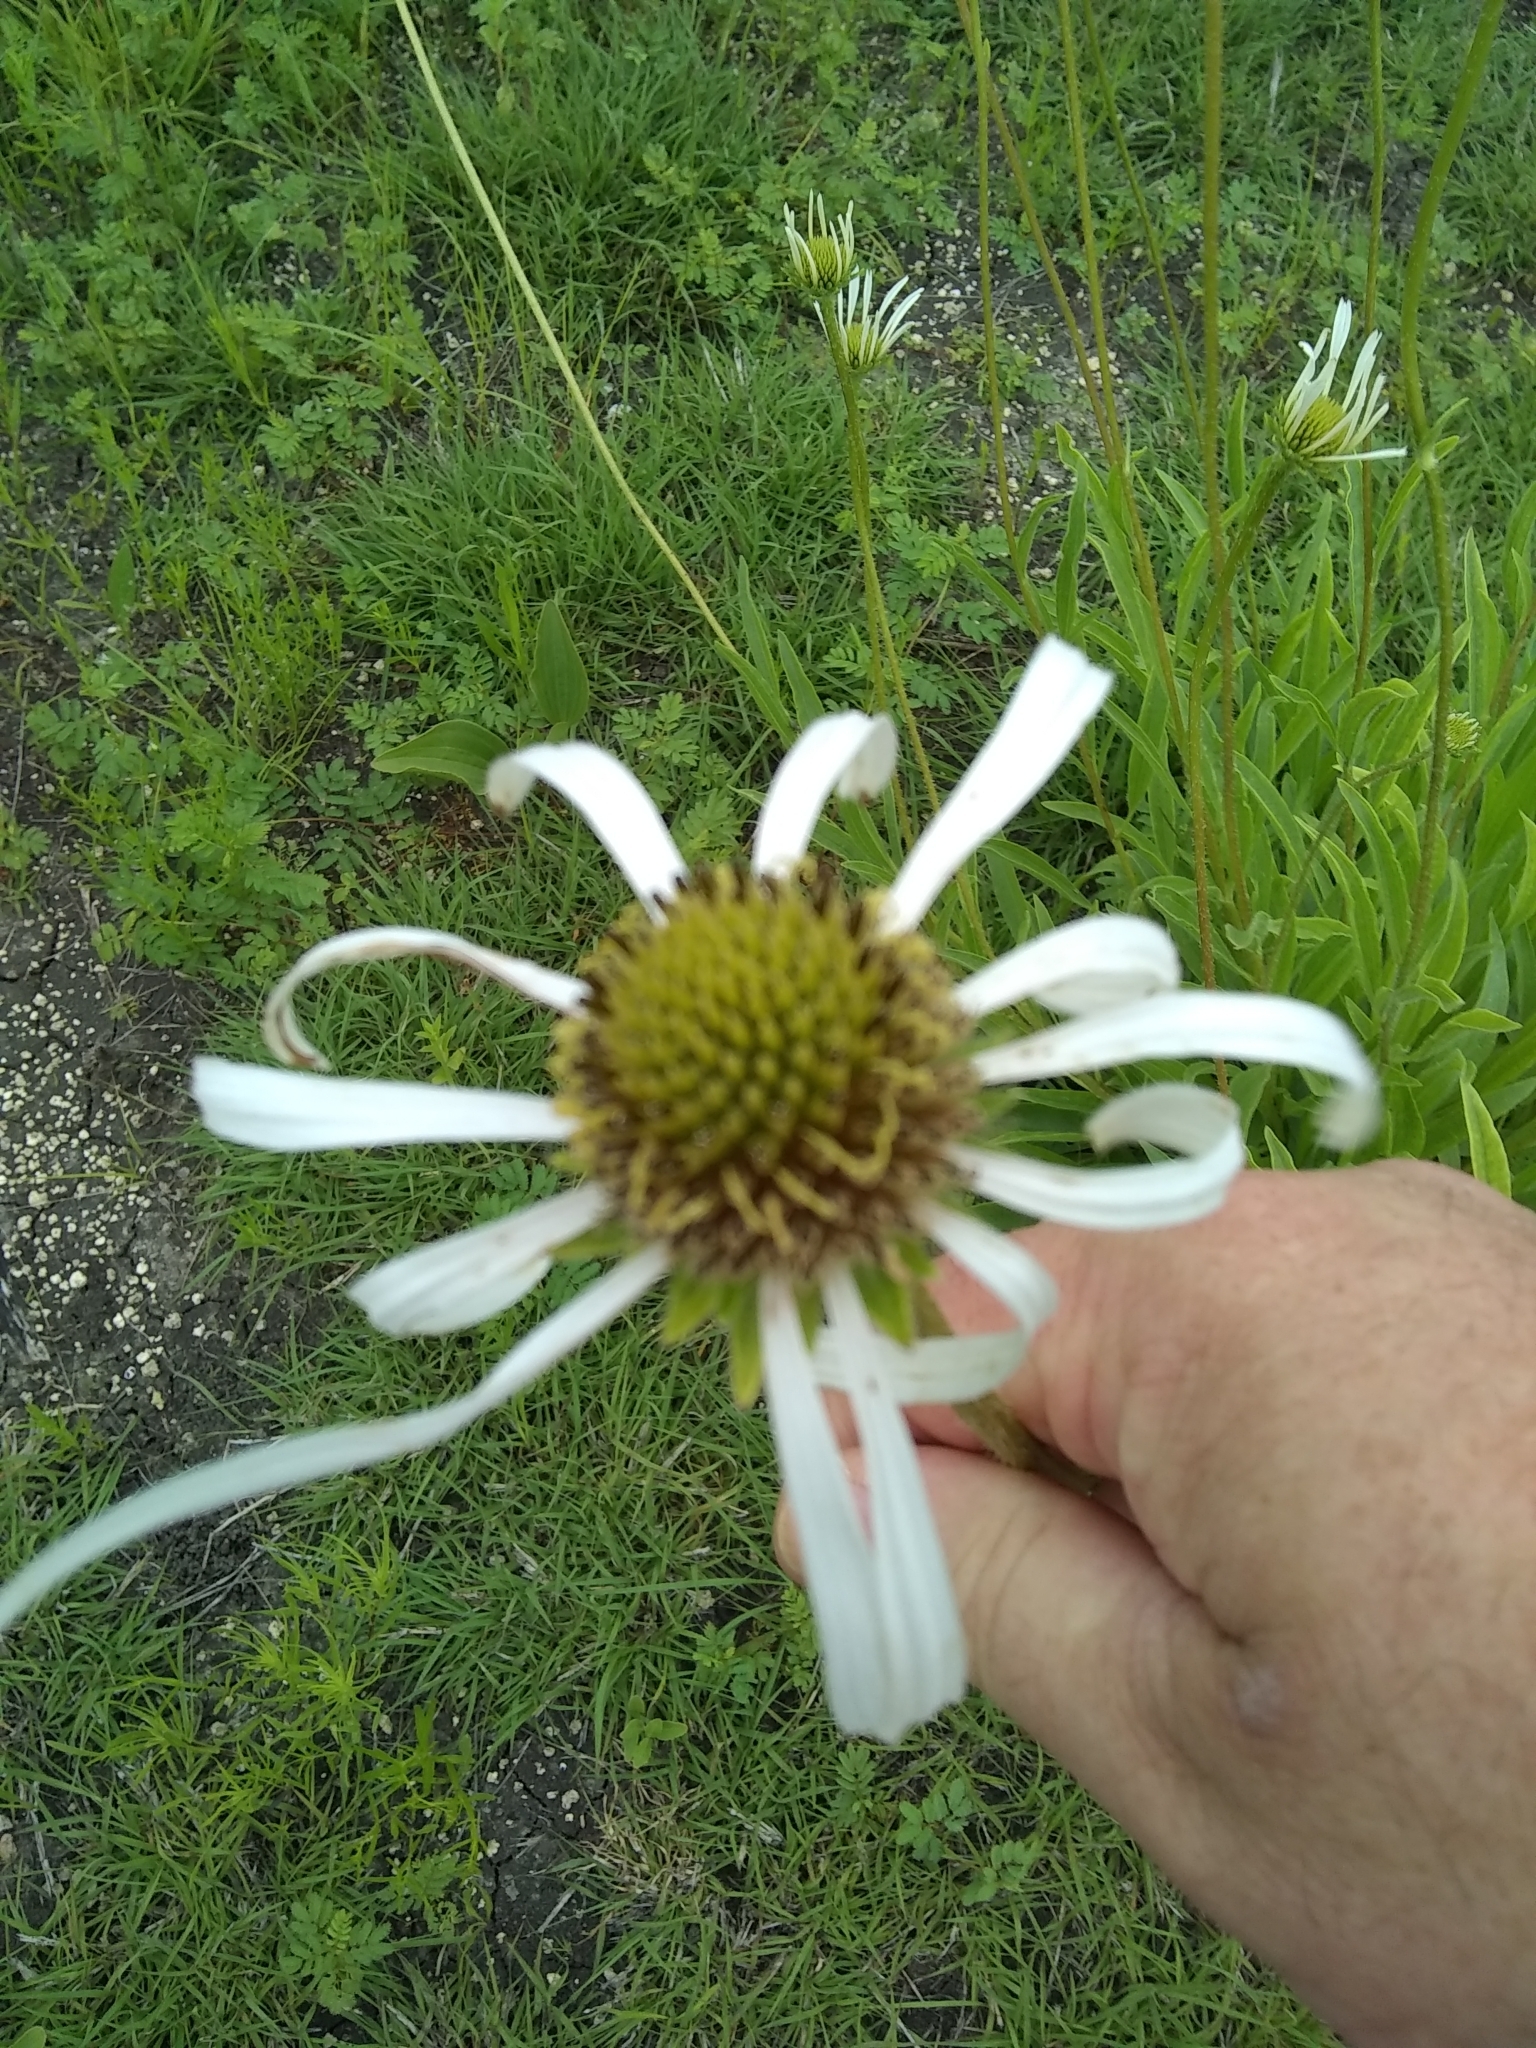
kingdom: Plantae
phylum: Tracheophyta
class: Magnoliopsida
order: Asterales
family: Asteraceae
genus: Echinacea
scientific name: Echinacea pallida
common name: Pale echinacea
